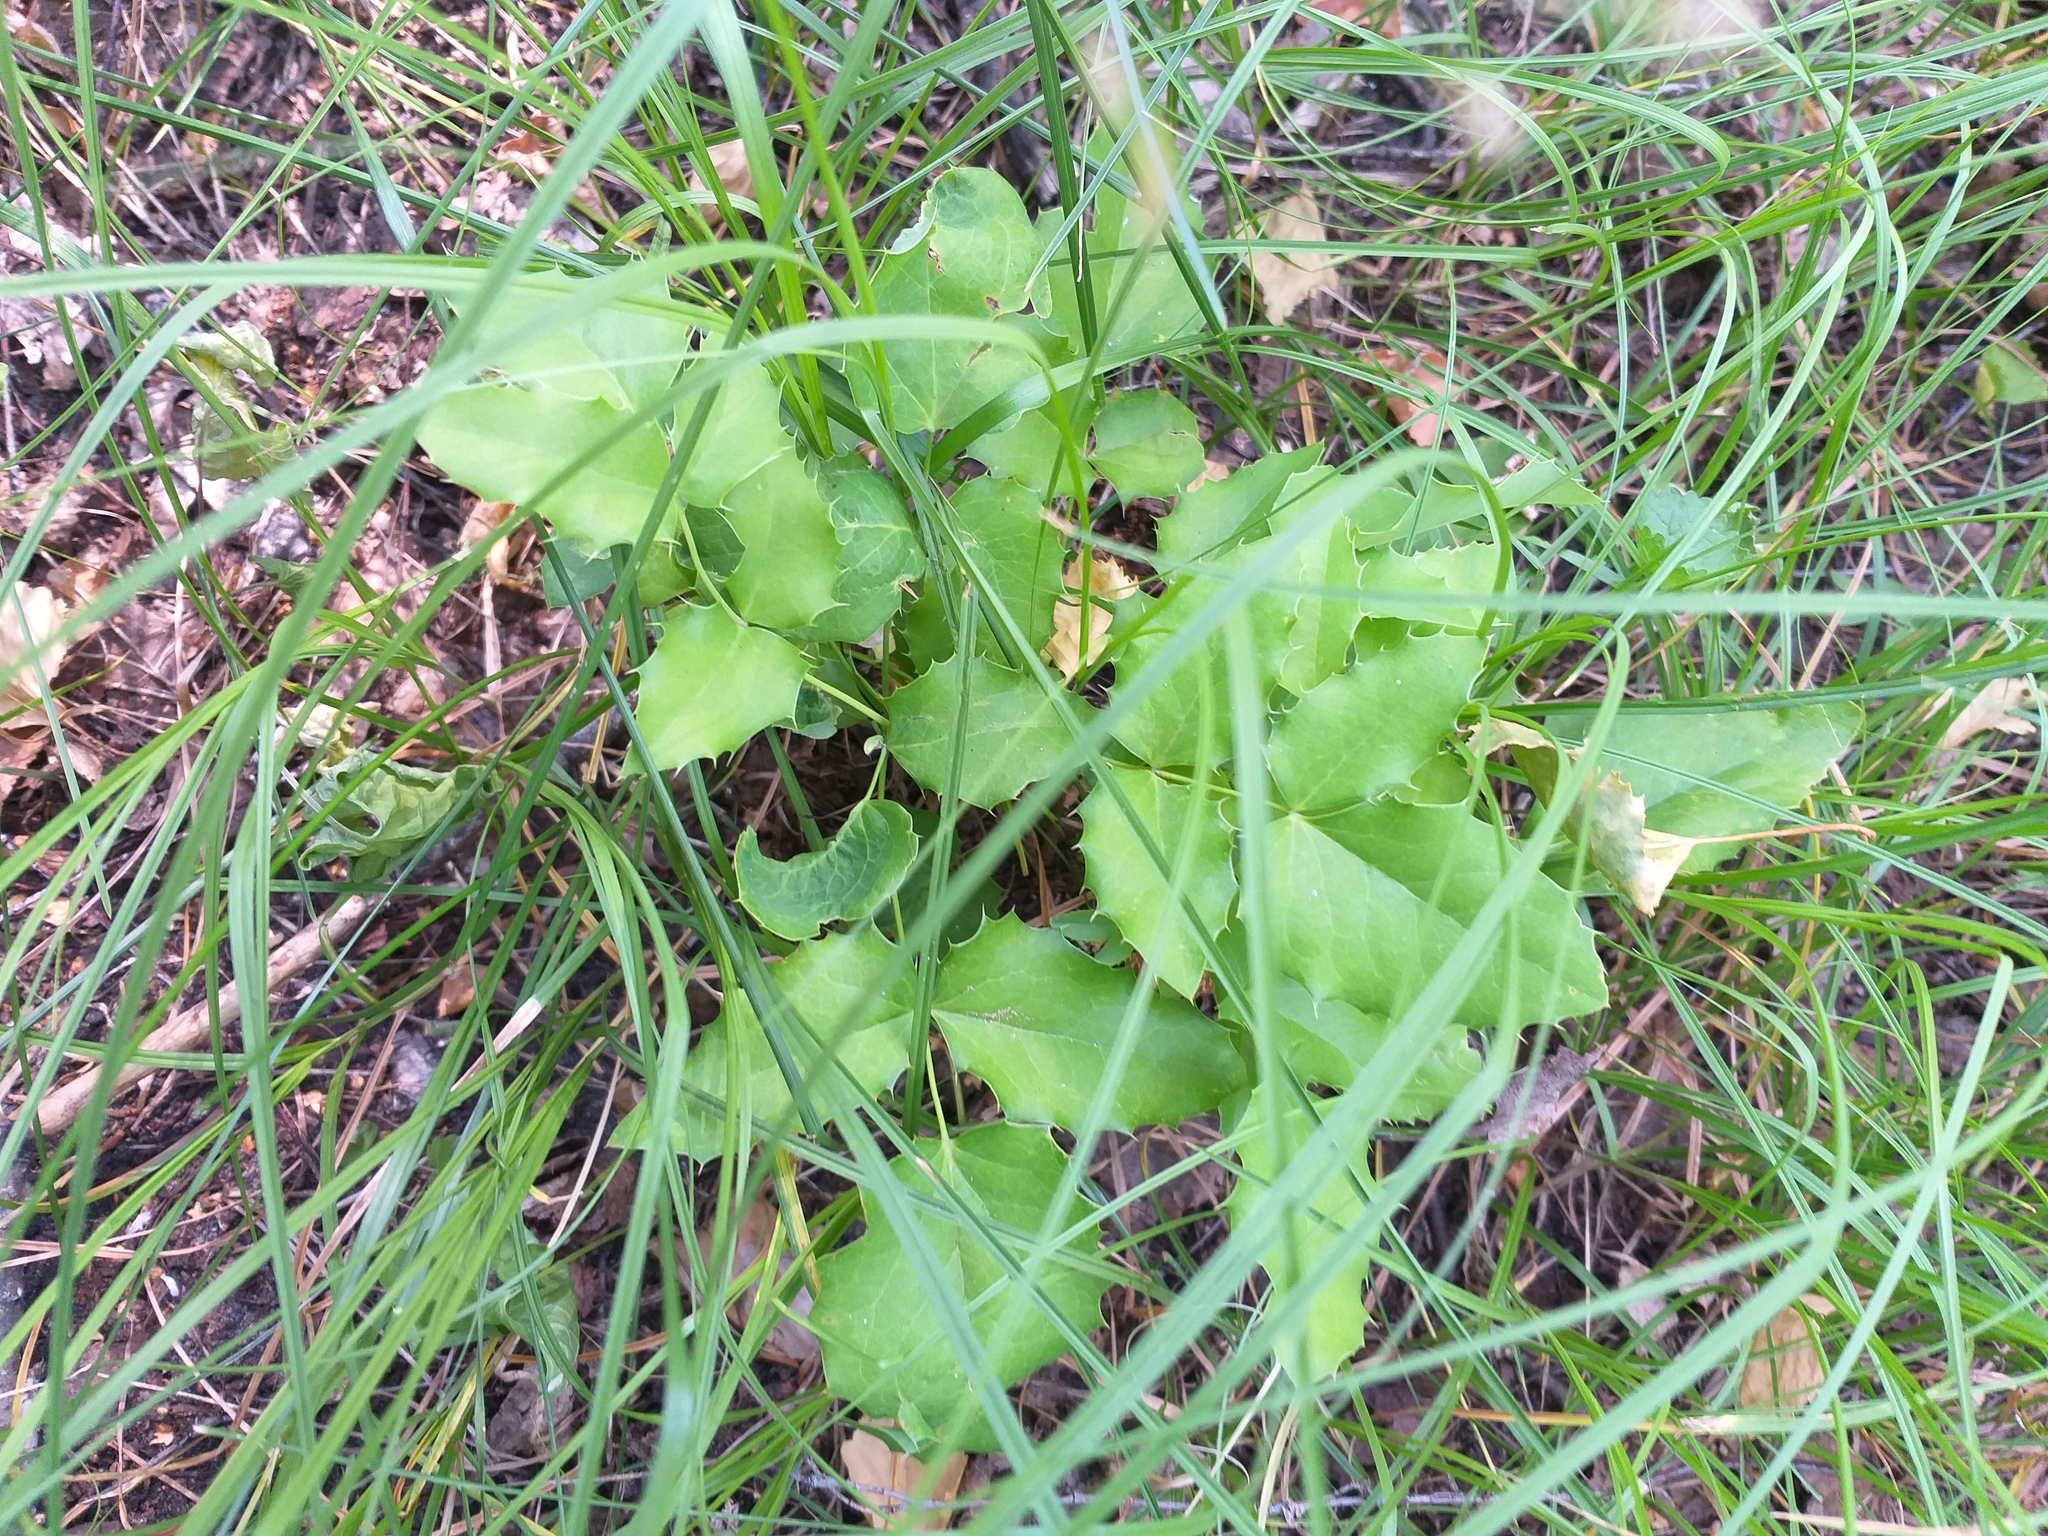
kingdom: Plantae
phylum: Tracheophyta
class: Magnoliopsida
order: Ranunculales
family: Berberidaceae
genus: Mahonia
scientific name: Mahonia aquifolium
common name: Oregon-grape
